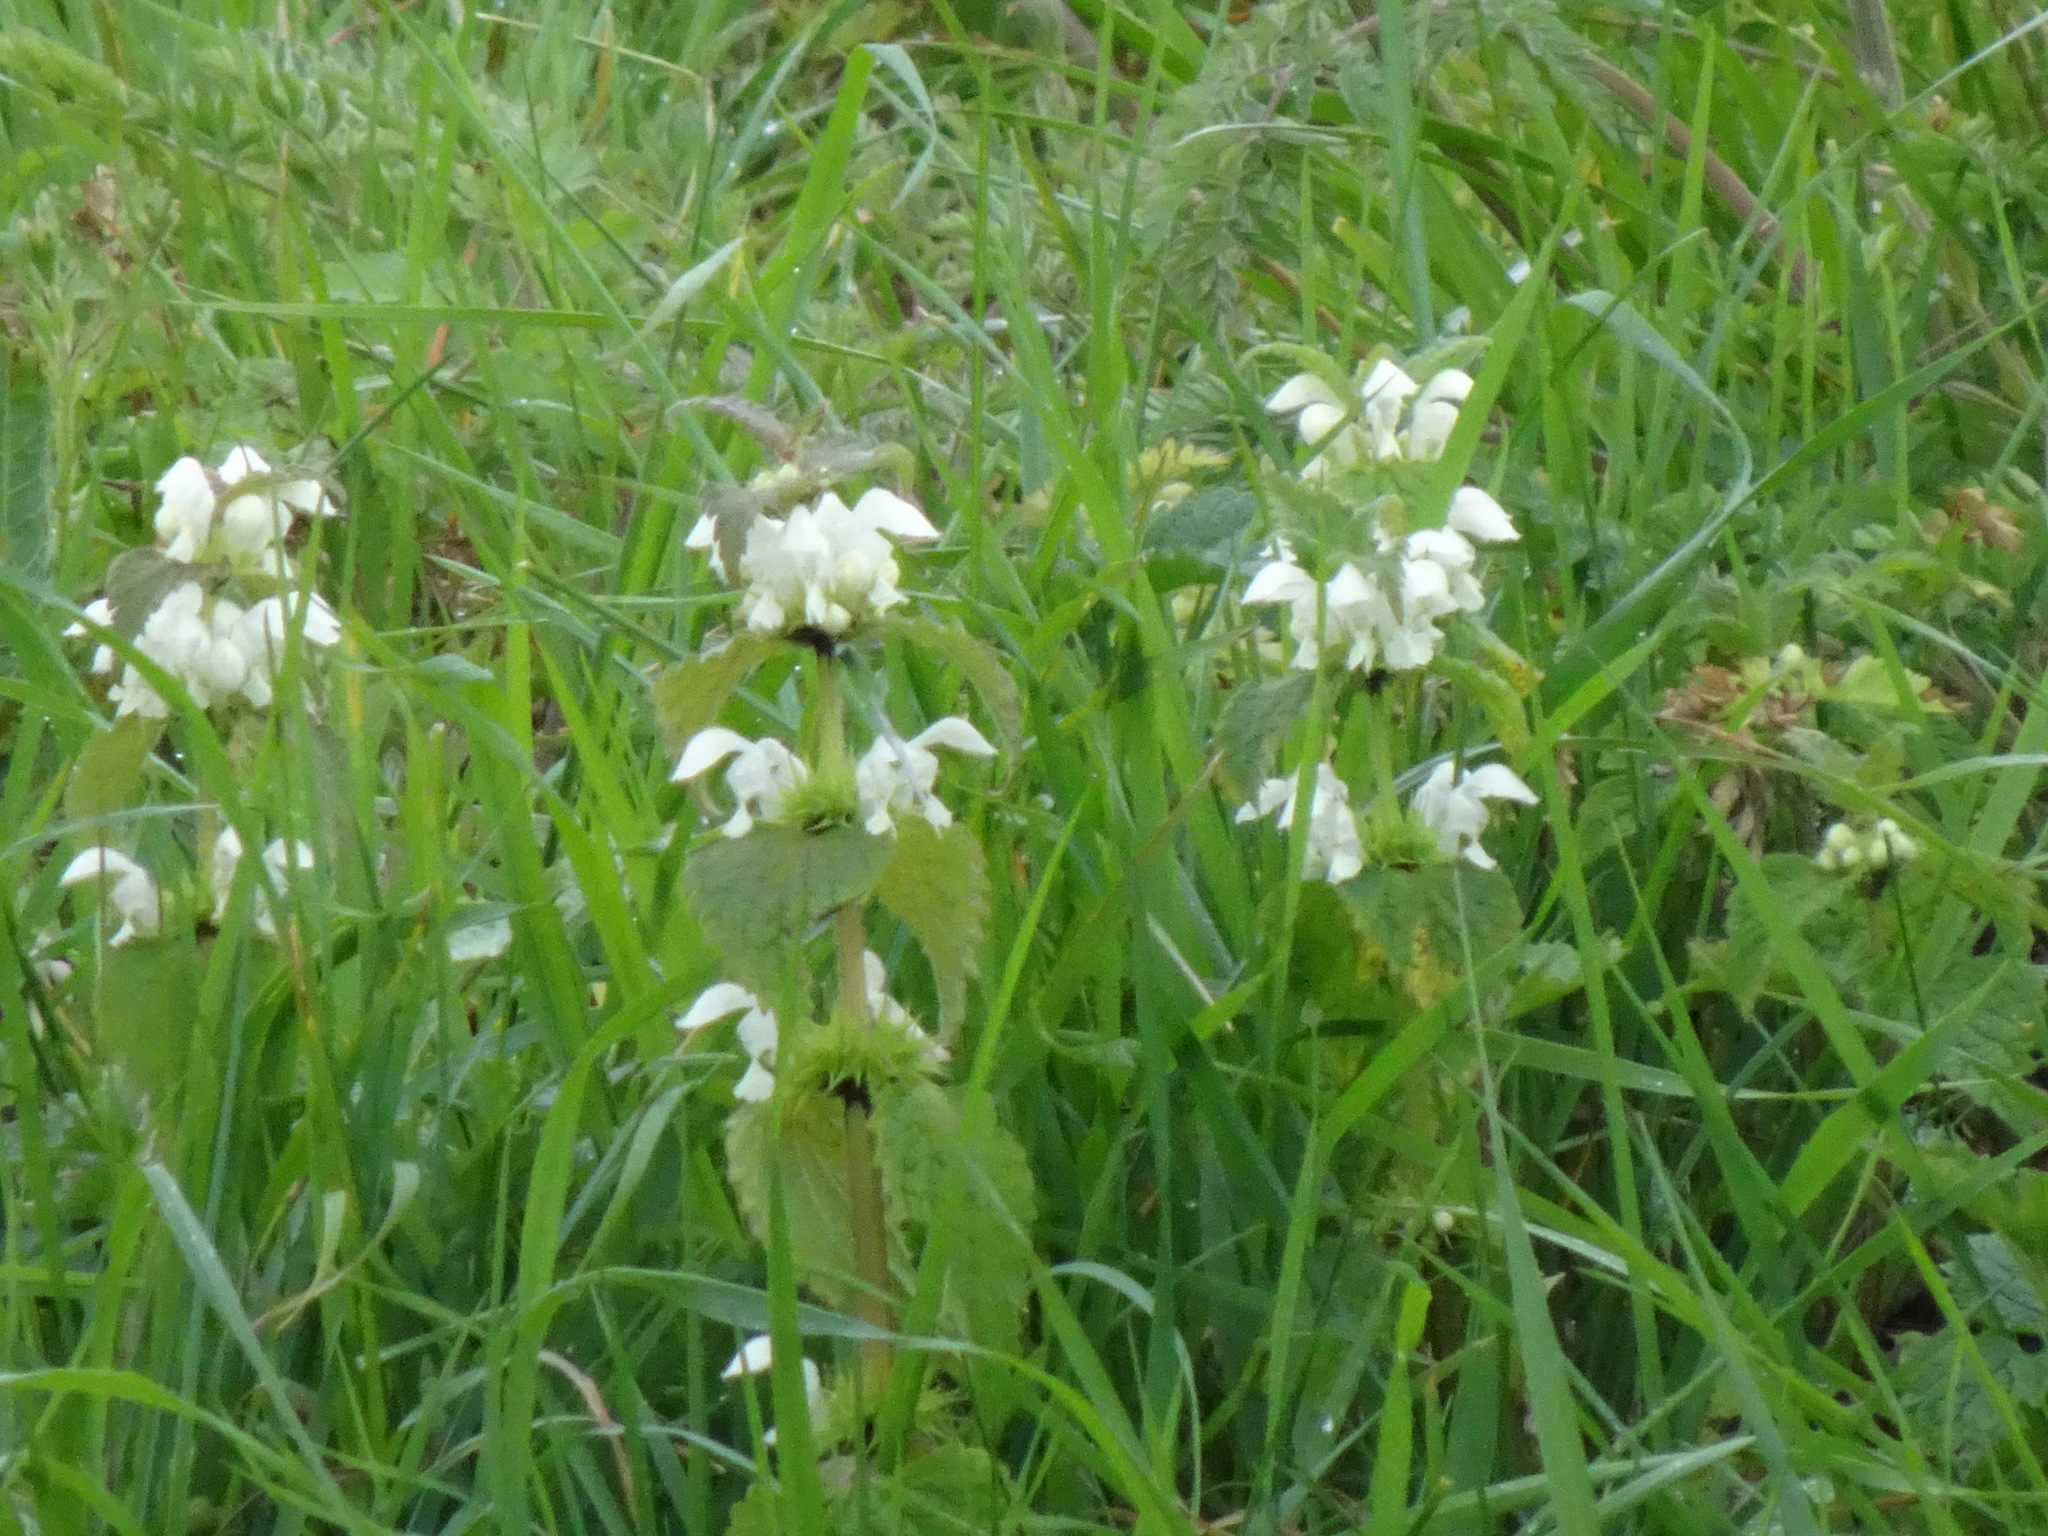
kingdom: Plantae
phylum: Tracheophyta
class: Magnoliopsida
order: Lamiales
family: Lamiaceae
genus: Lamium
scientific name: Lamium album
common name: White dead-nettle
